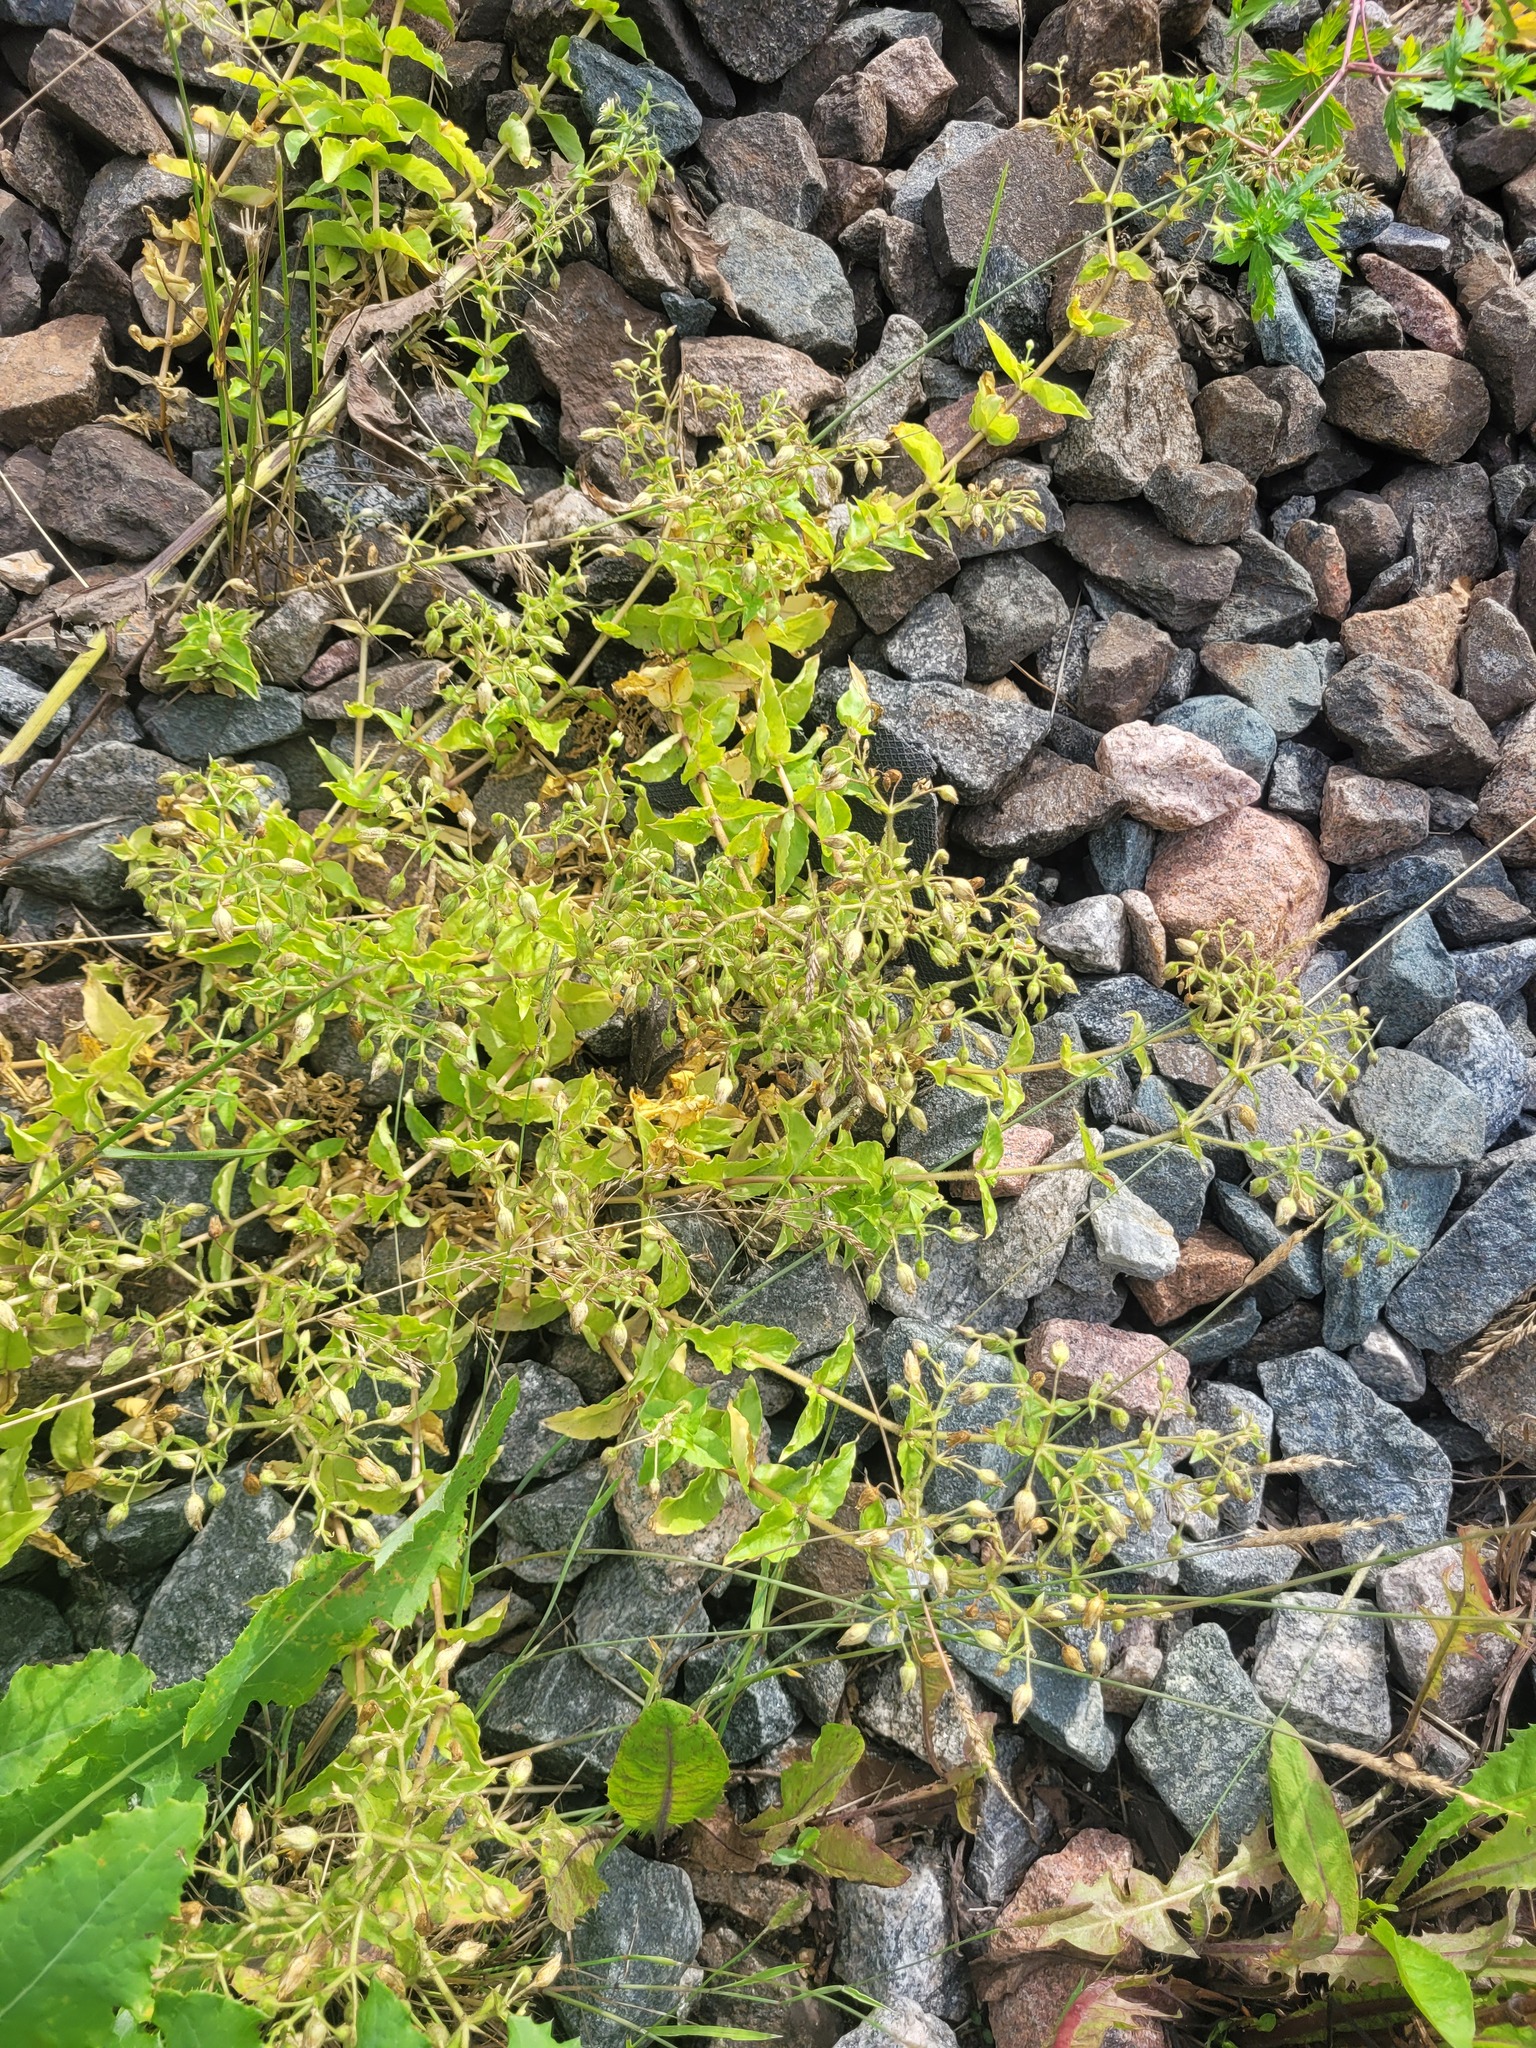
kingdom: Plantae
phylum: Tracheophyta
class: Magnoliopsida
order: Caryophyllales
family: Caryophyllaceae
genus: Stellaria
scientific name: Stellaria aquatica
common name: Water chickweed
